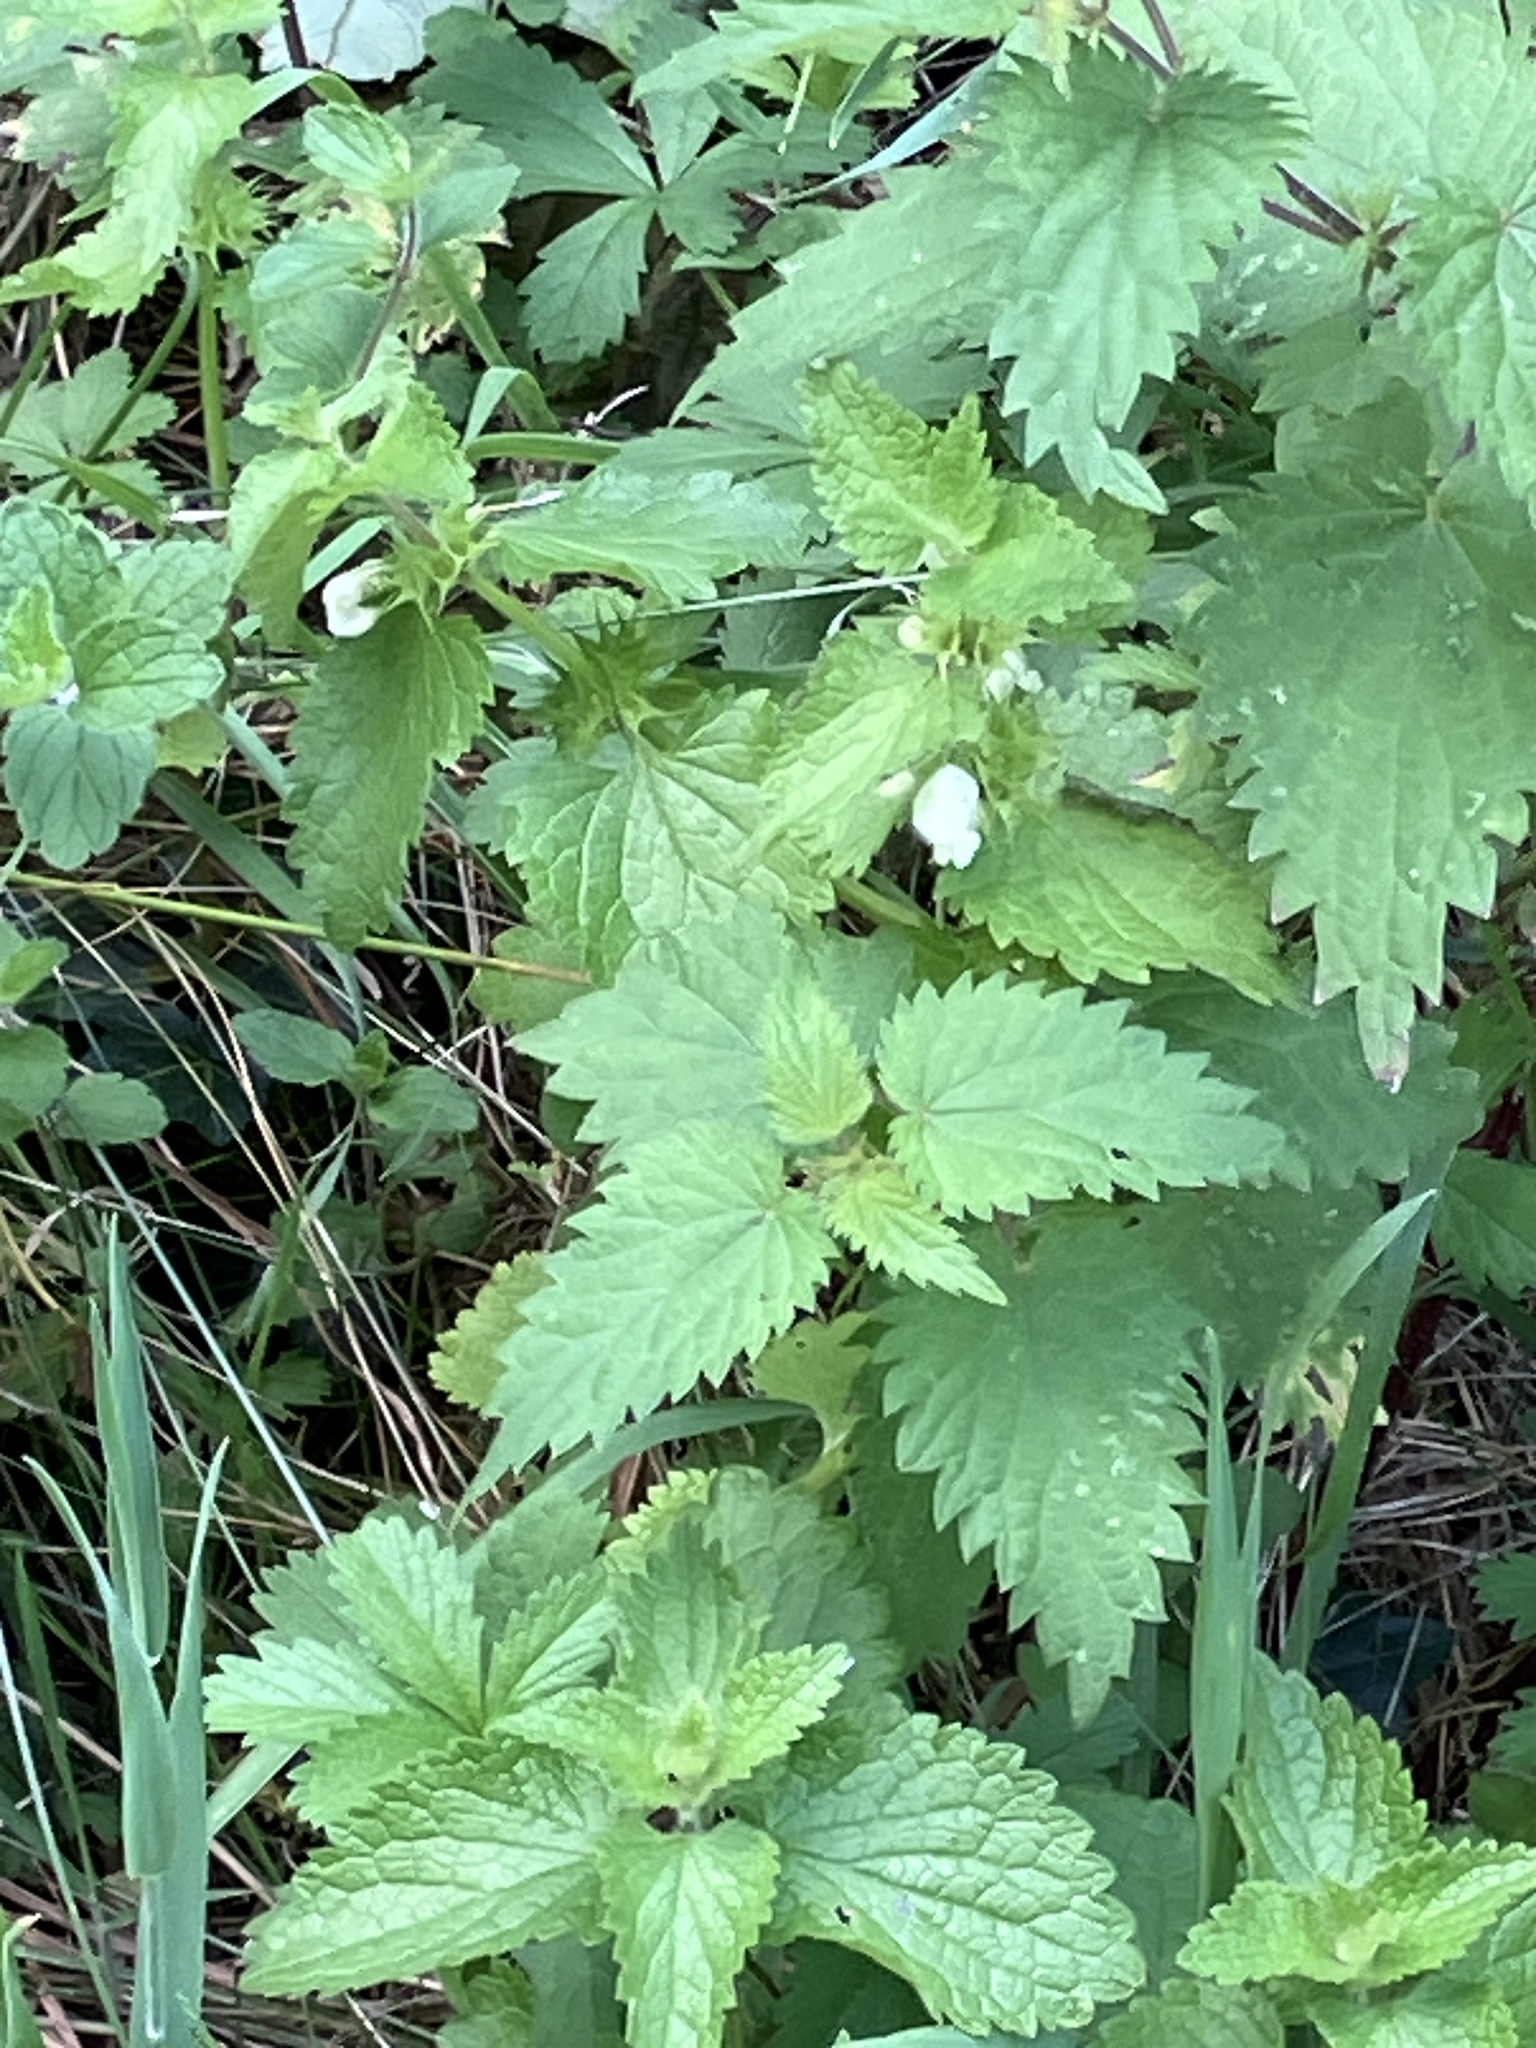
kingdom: Plantae
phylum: Tracheophyta
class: Magnoliopsida
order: Lamiales
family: Lamiaceae
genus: Lamium
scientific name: Lamium album
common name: White dead-nettle
